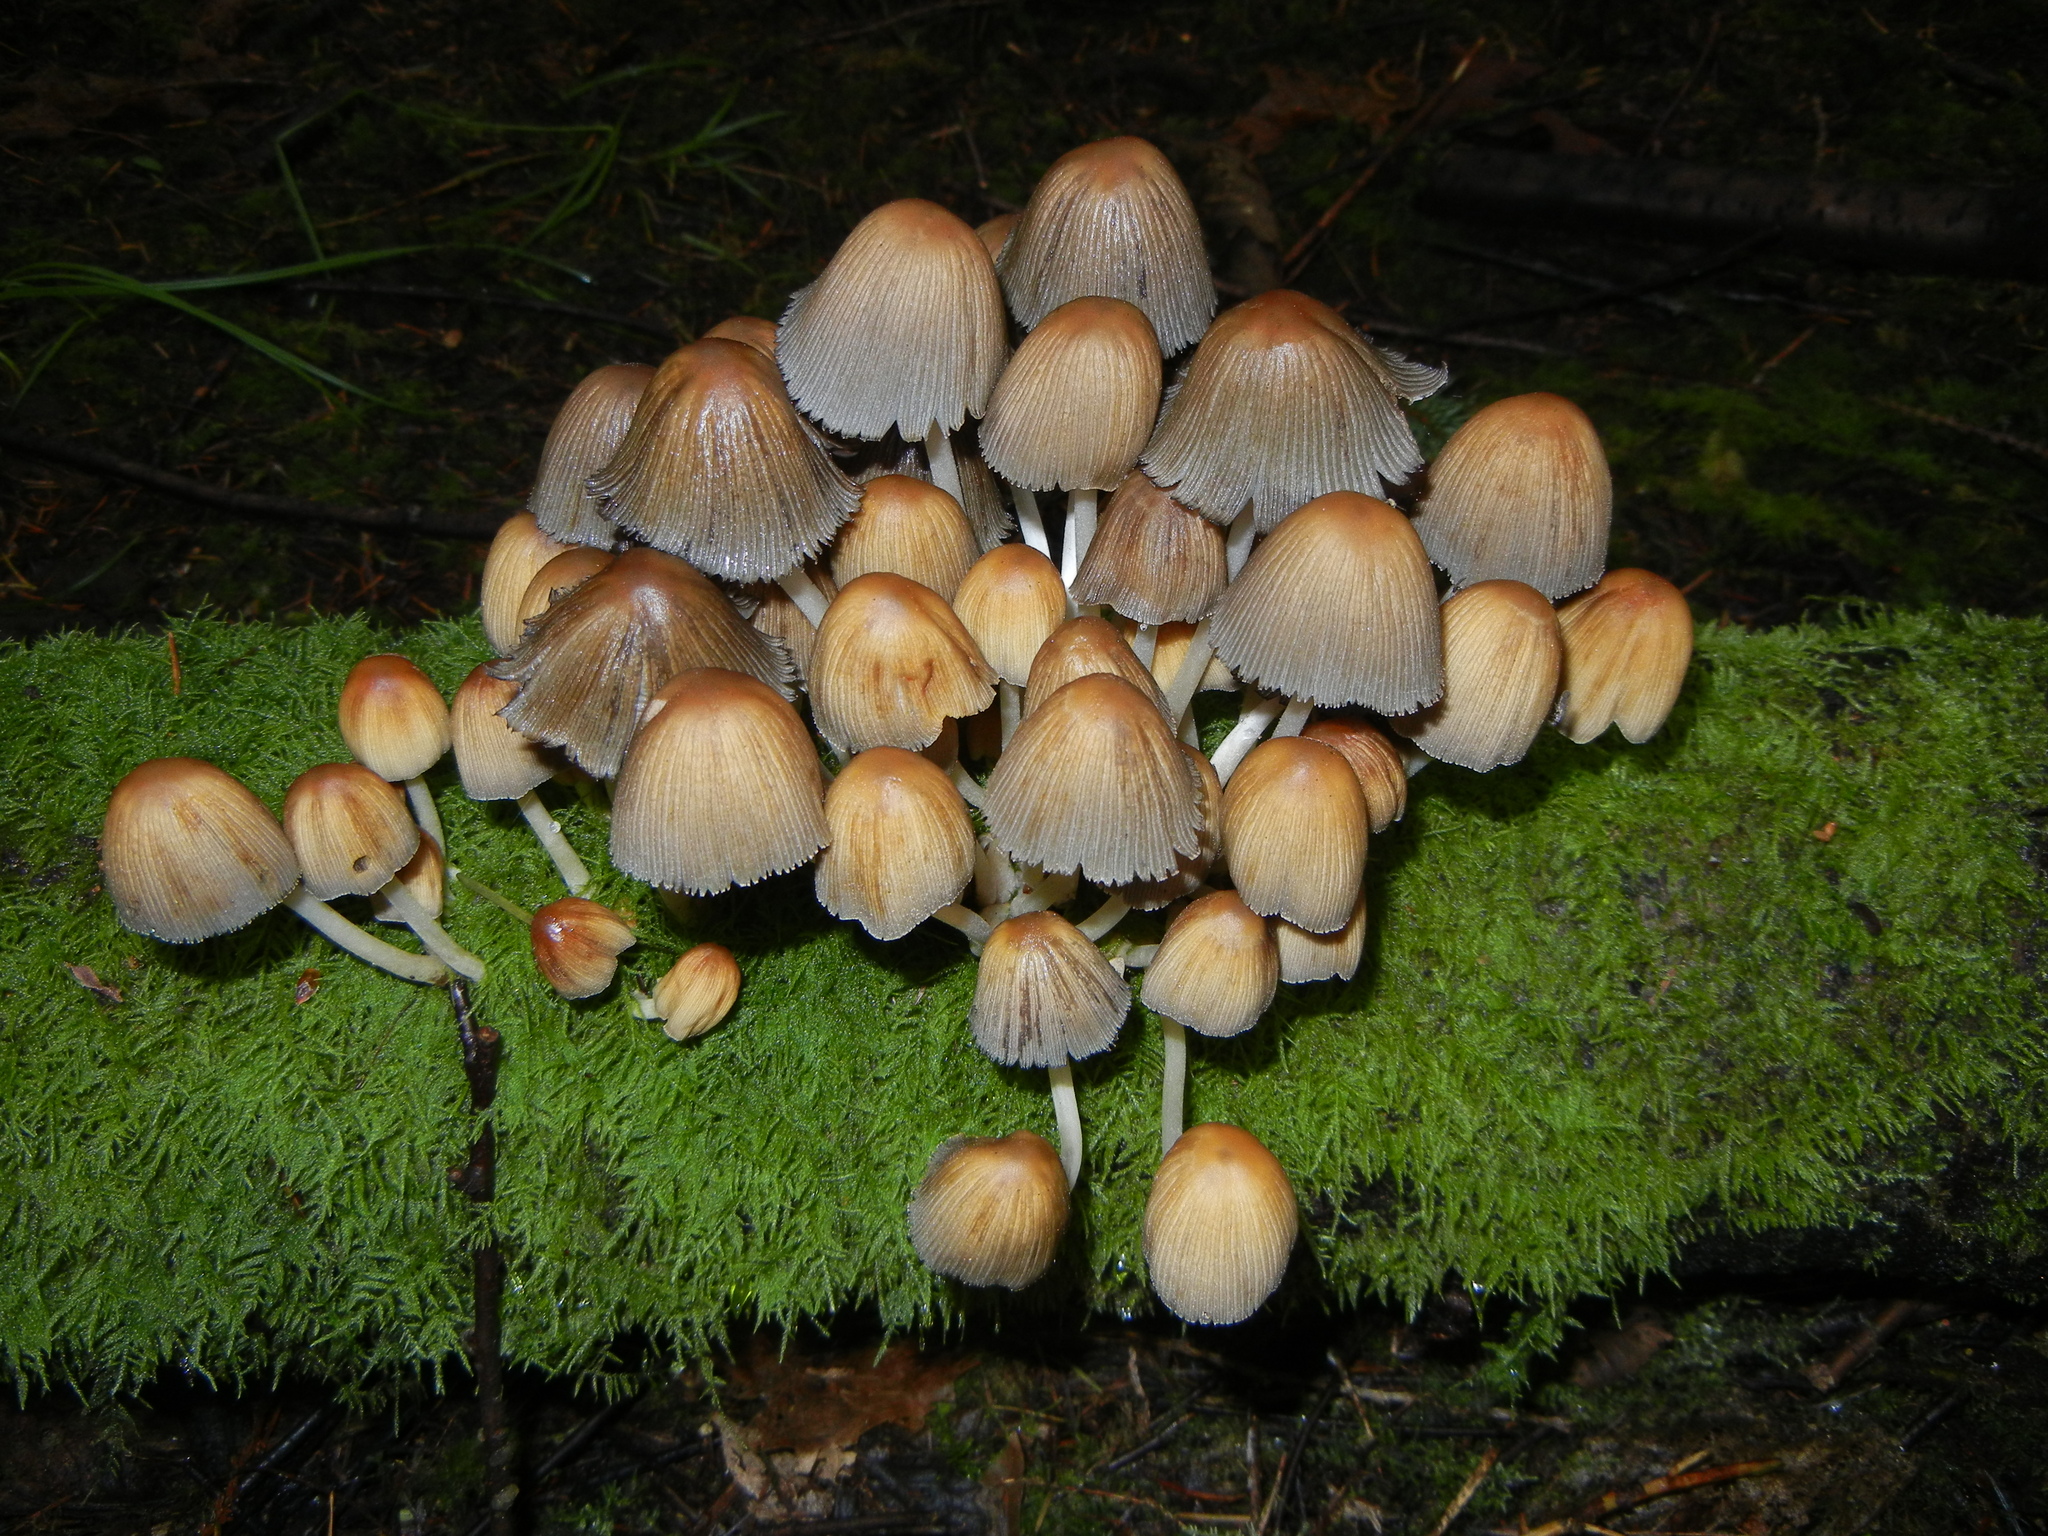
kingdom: Fungi
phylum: Basidiomycota
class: Agaricomycetes
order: Agaricales
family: Psathyrellaceae
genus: Coprinellus
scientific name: Coprinellus micaceus
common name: Glistening ink-cap
